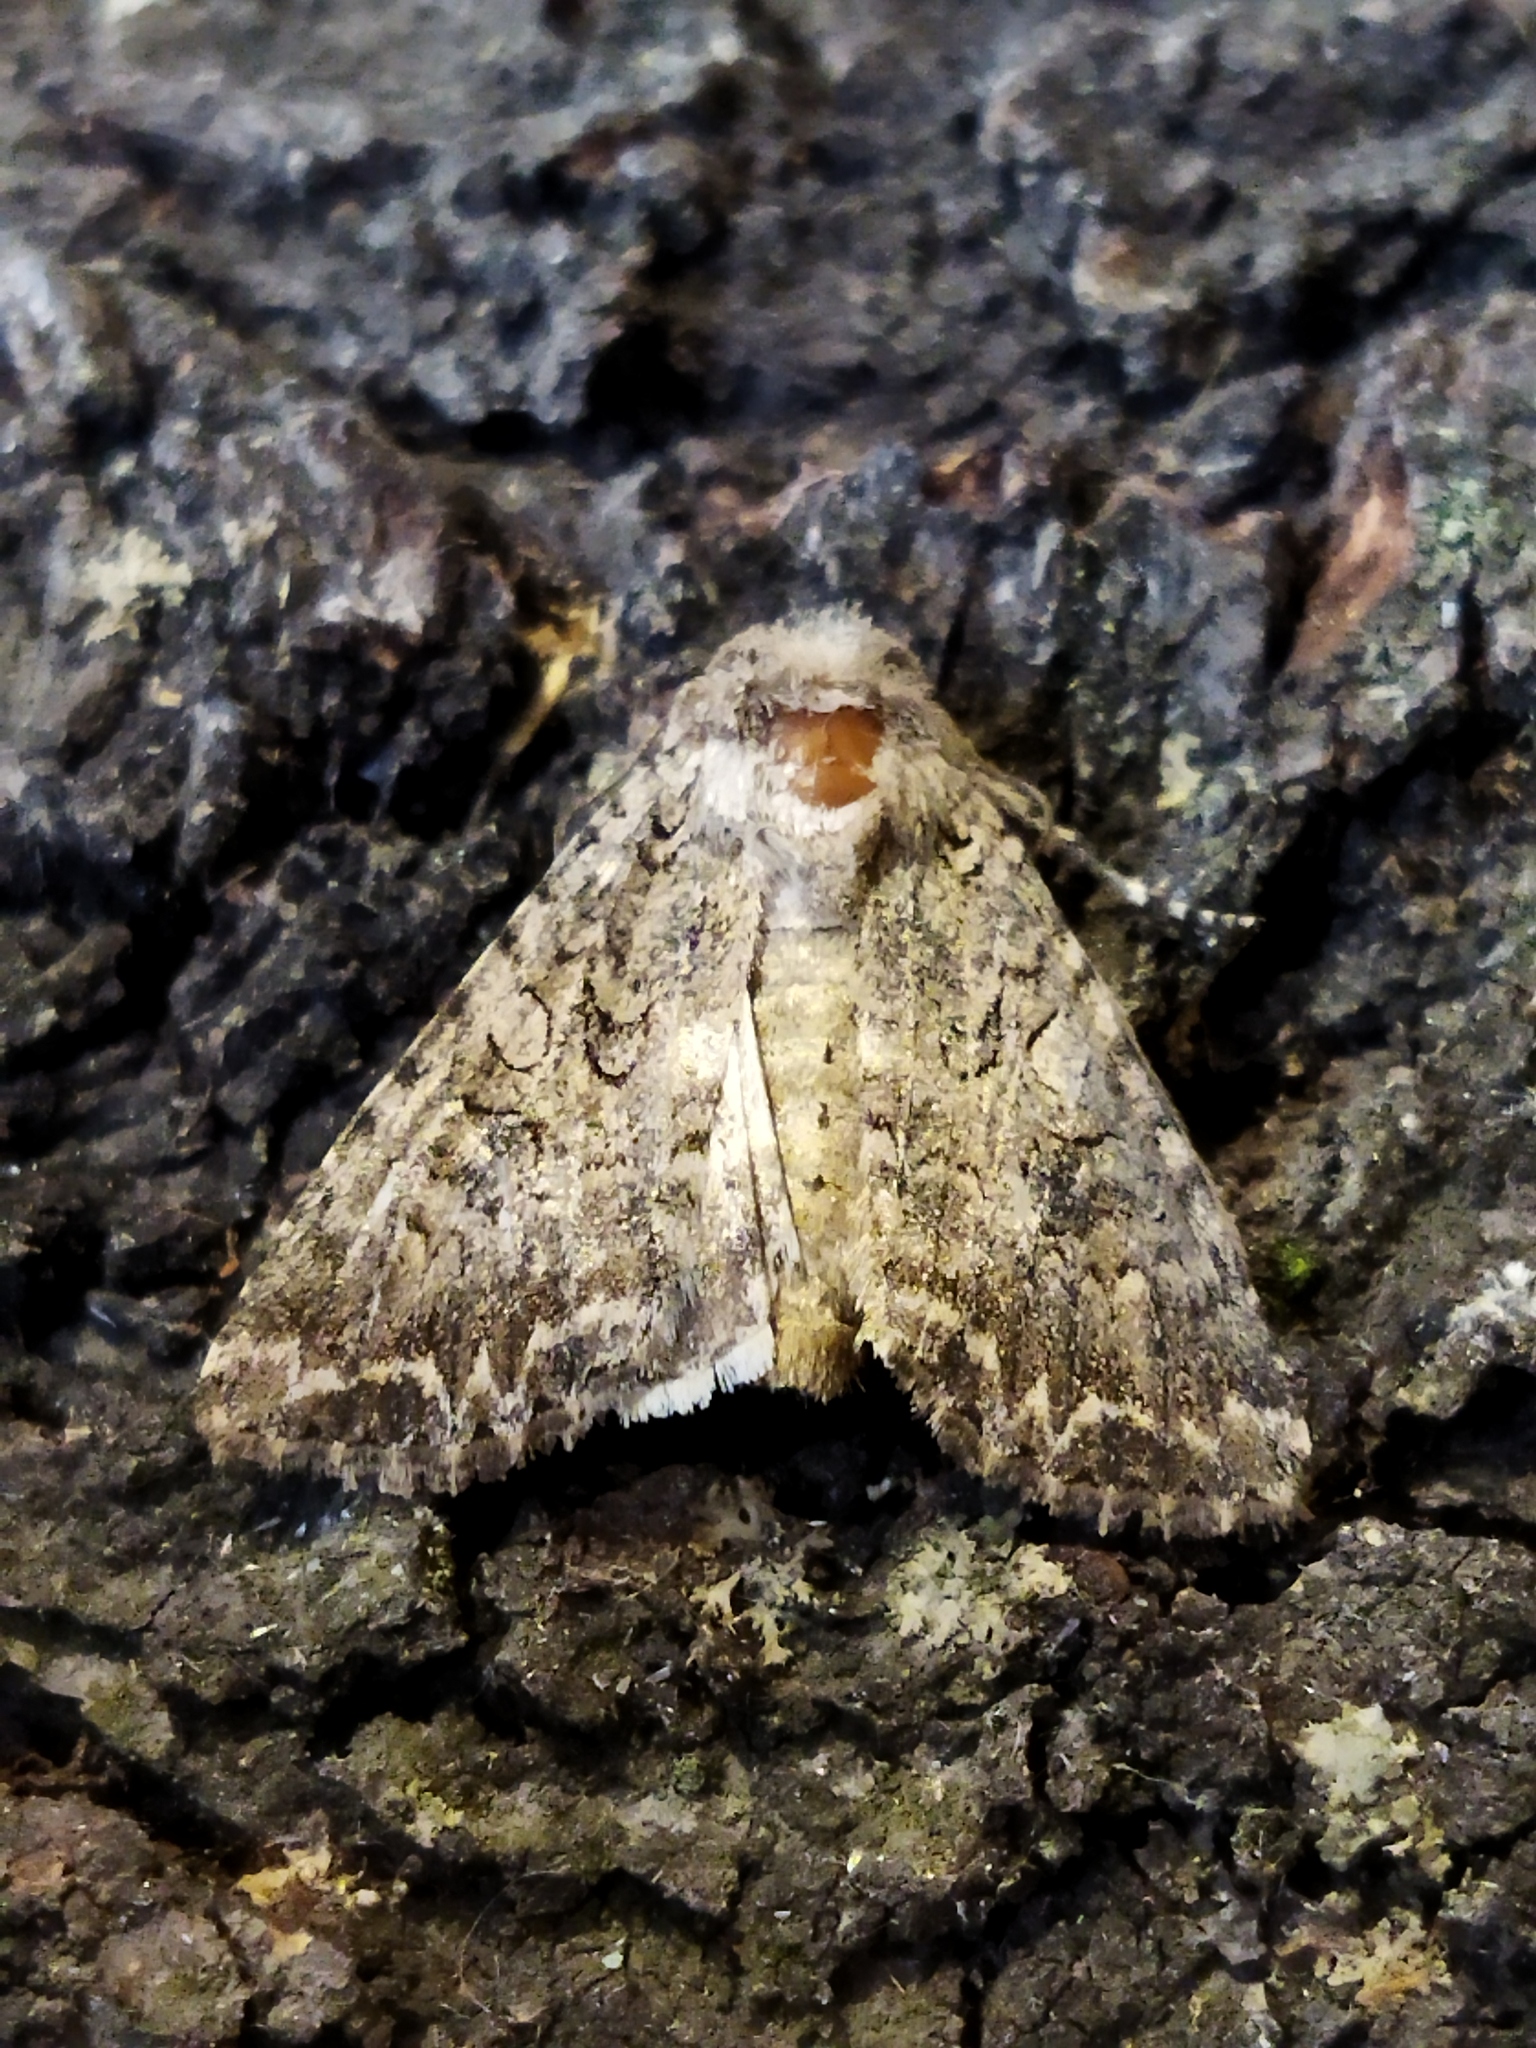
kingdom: Animalia
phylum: Arthropoda
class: Insecta
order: Lepidoptera
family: Noctuidae
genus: Anarta
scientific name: Anarta trifolii
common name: Clover cutworm moth
